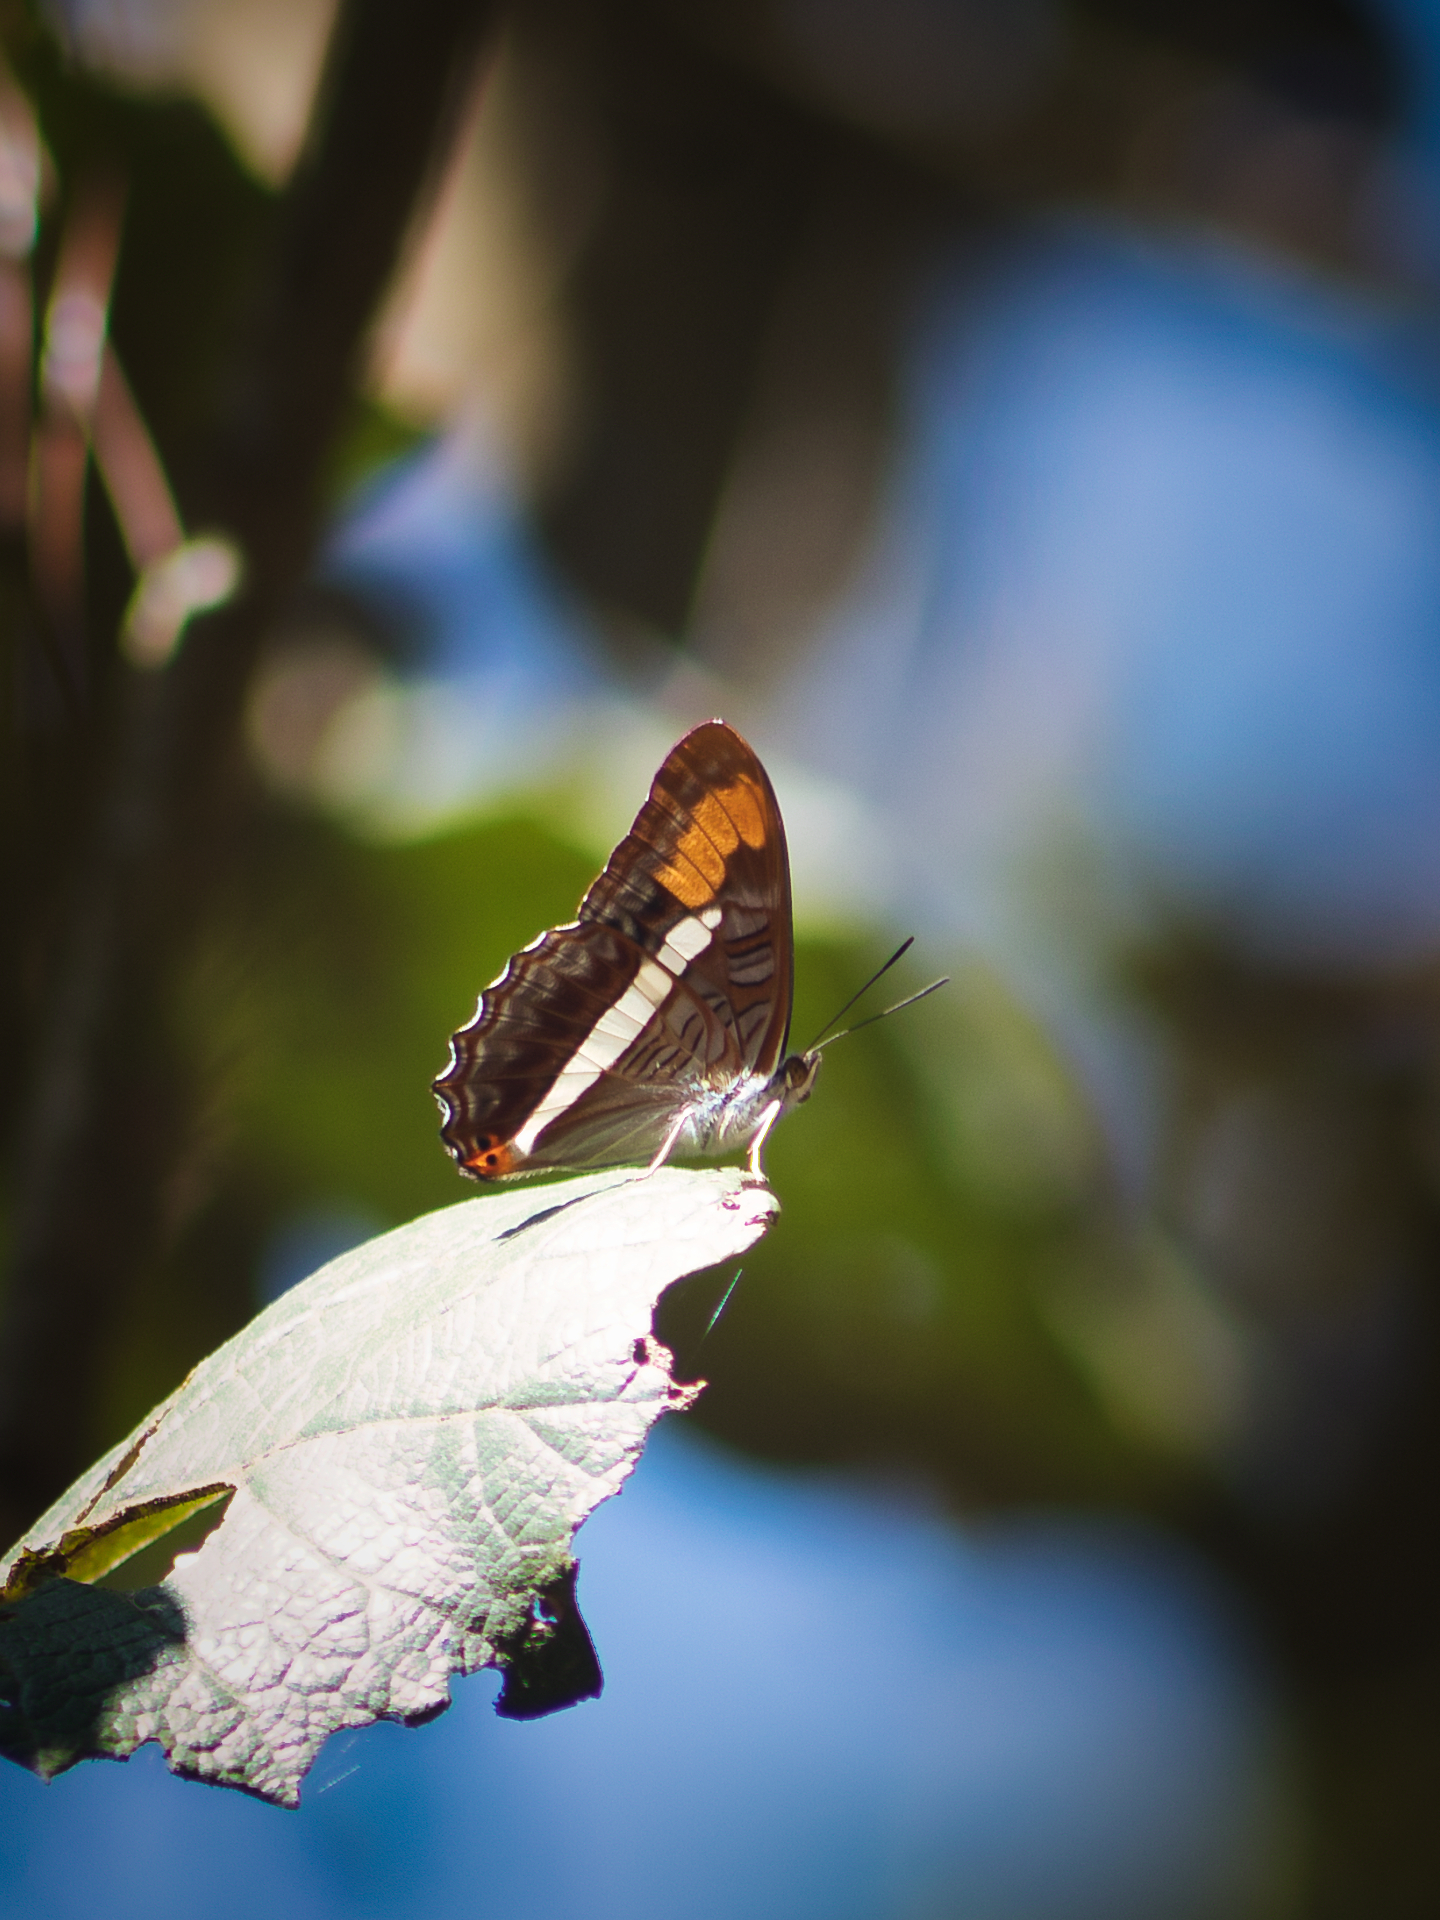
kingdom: Animalia
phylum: Arthropoda
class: Insecta
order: Lepidoptera
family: Nymphalidae
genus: Limenitis
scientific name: Limenitis pithys
